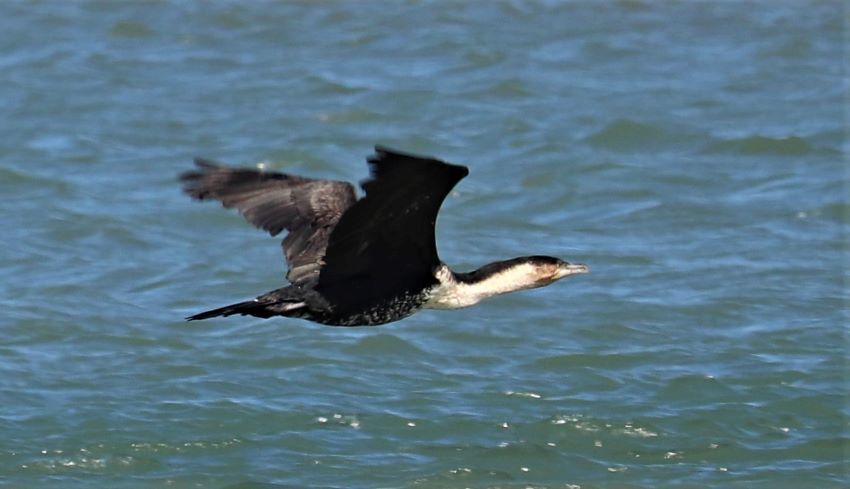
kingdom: Animalia
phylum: Chordata
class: Aves
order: Suliformes
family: Phalacrocoracidae
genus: Phalacrocorax
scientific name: Phalacrocorax carbo
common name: Great cormorant
